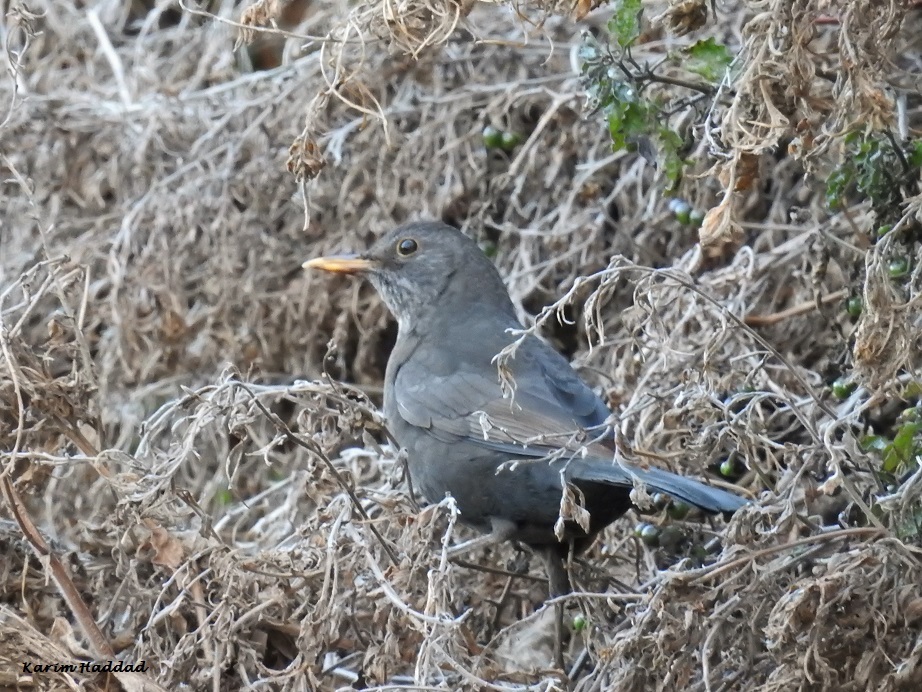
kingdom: Animalia
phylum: Chordata
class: Aves
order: Passeriformes
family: Turdidae
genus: Turdus
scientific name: Turdus merula
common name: Common blackbird
